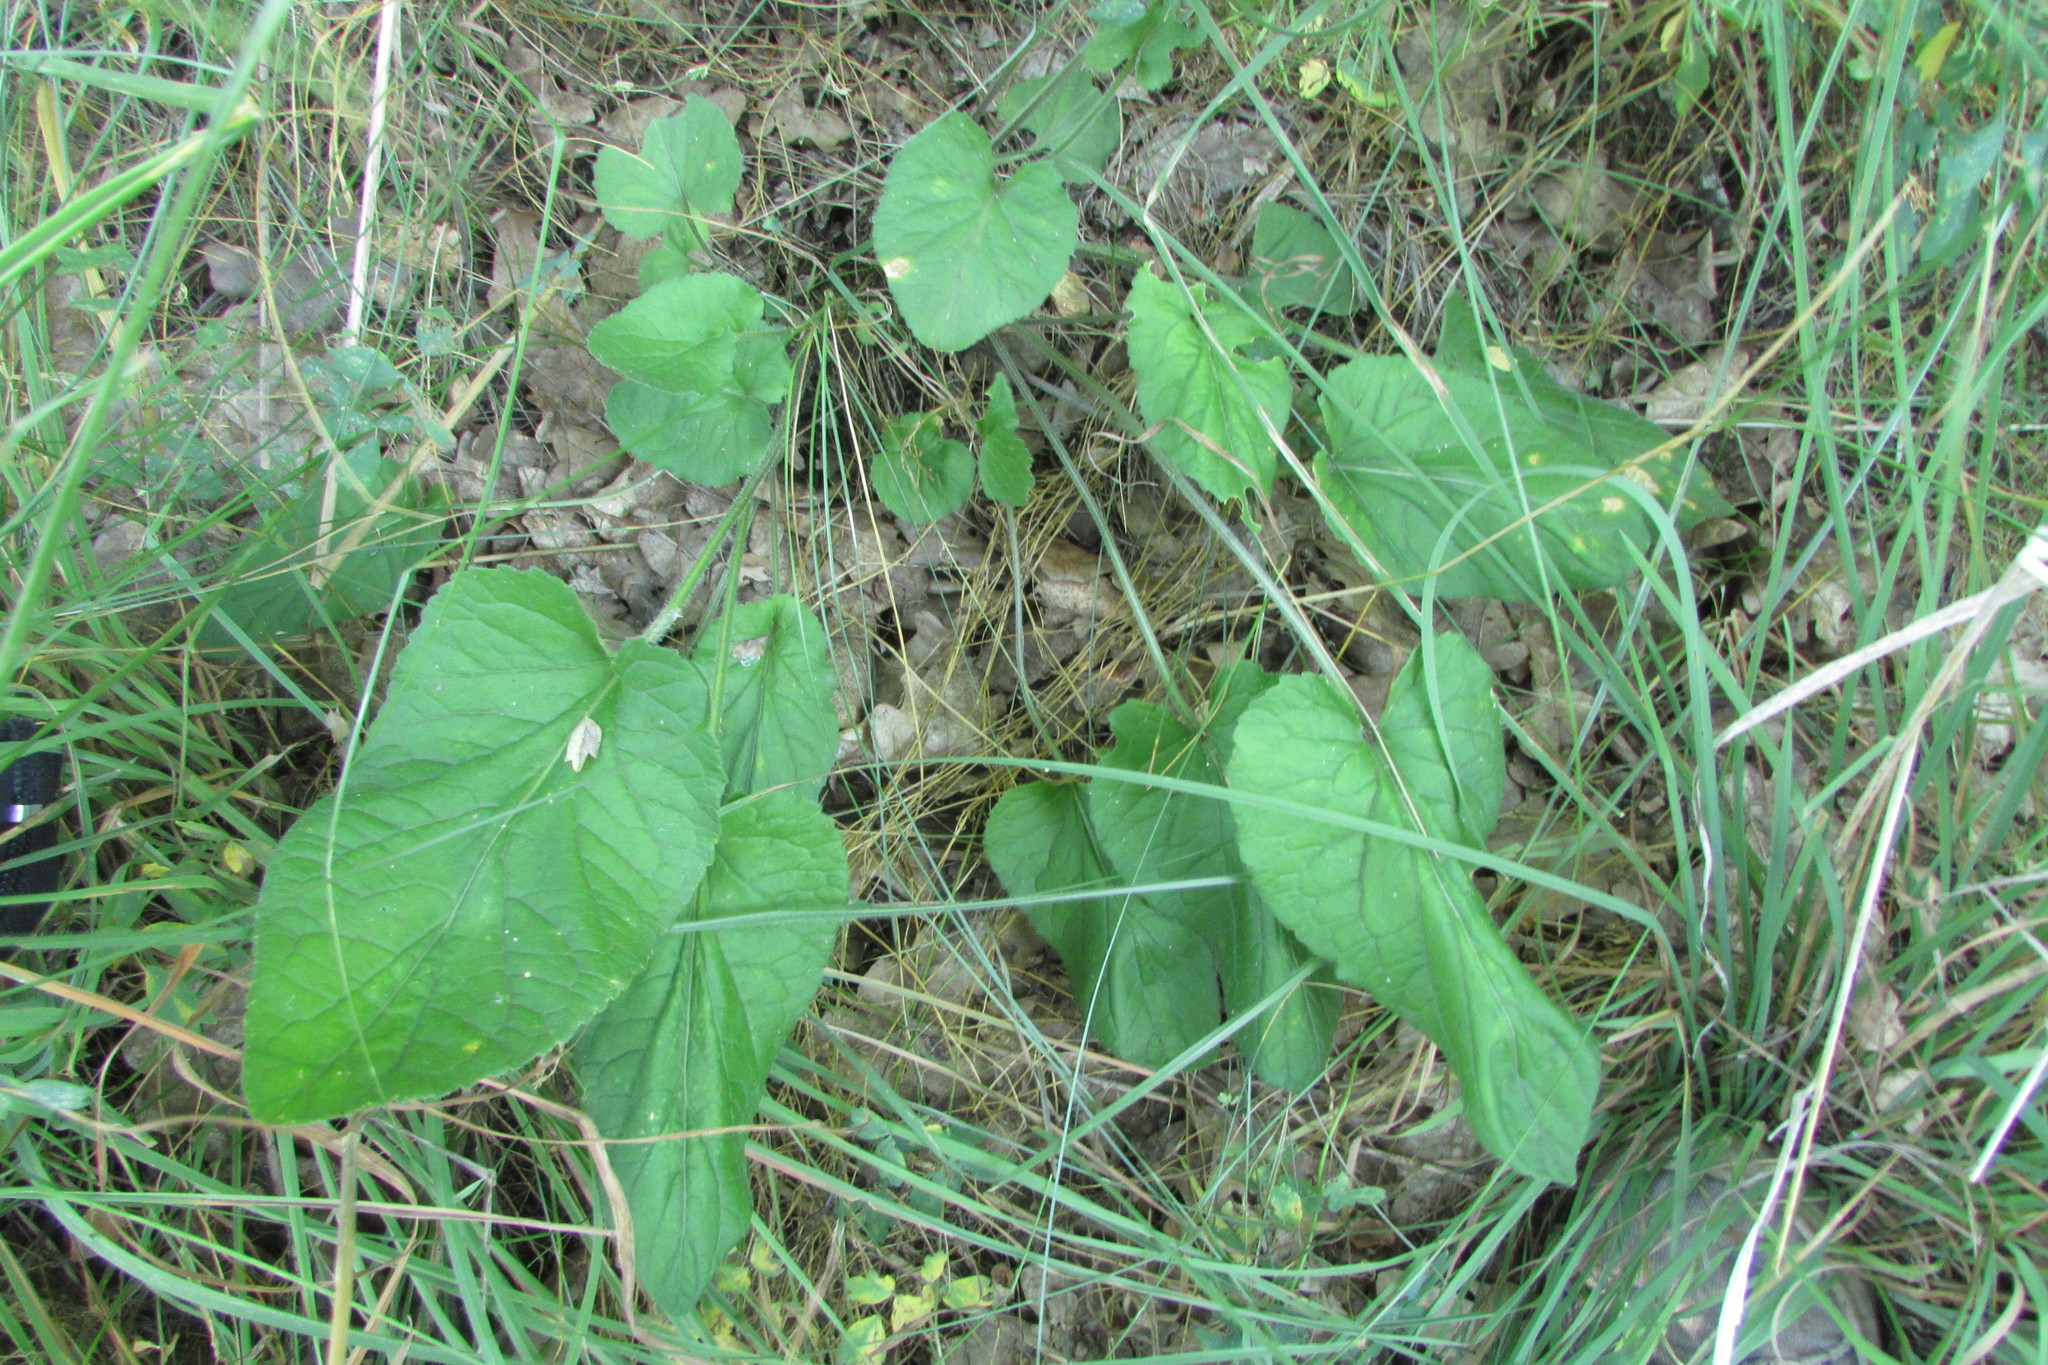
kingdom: Plantae
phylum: Tracheophyta
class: Magnoliopsida
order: Malpighiales
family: Violaceae
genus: Viola
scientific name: Viola hirta
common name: Hairy violet
